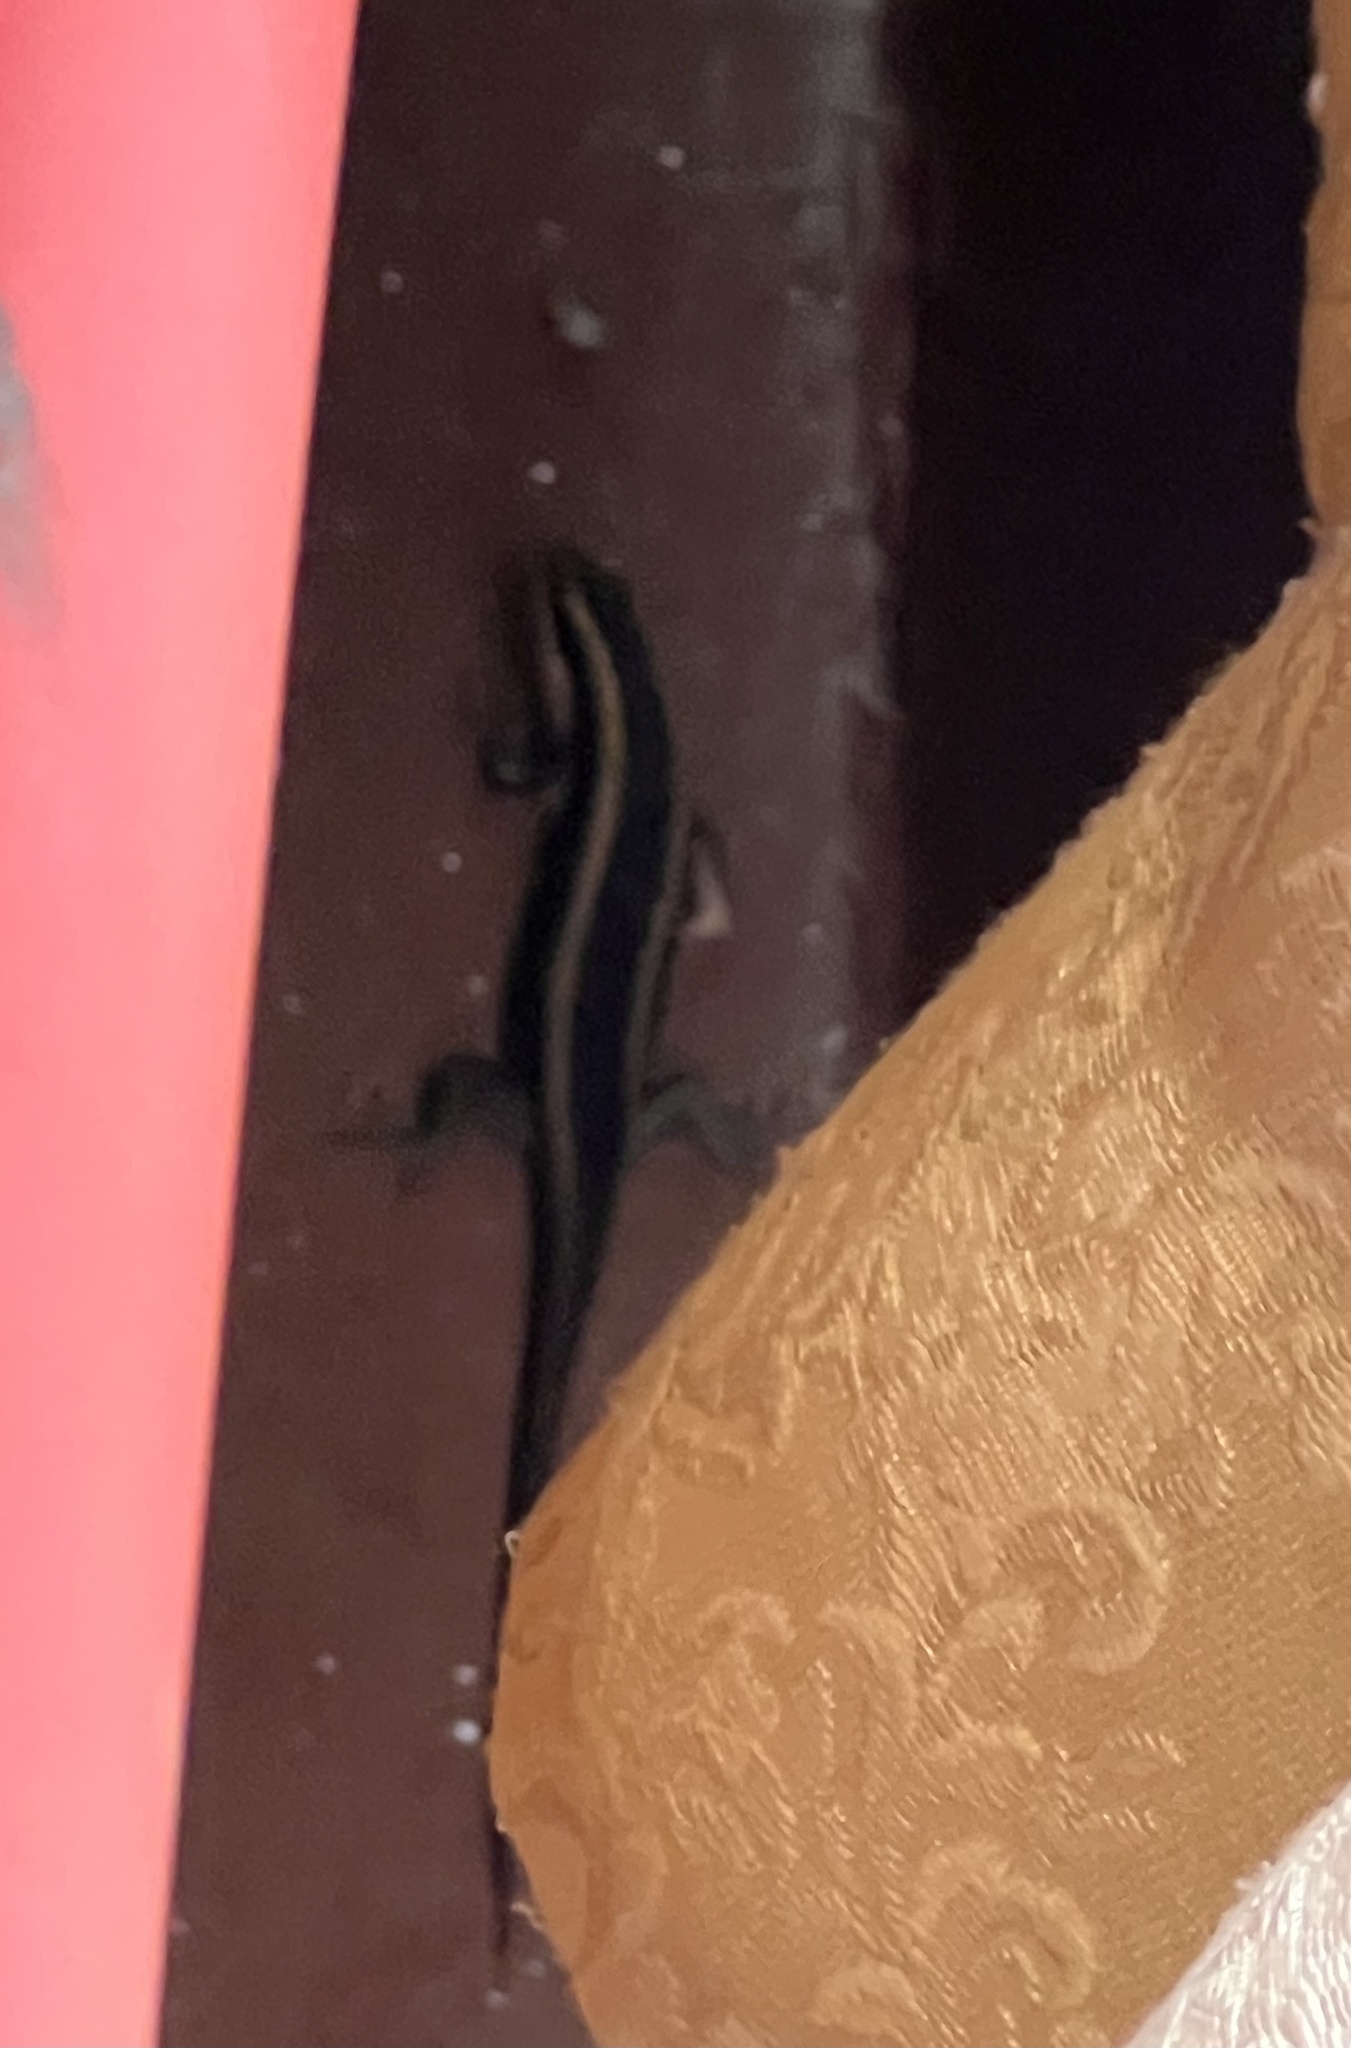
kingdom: Animalia
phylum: Chordata
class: Squamata
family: Scincidae
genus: Trachylepis
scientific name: Trachylepis striata
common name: African striped mabuya
